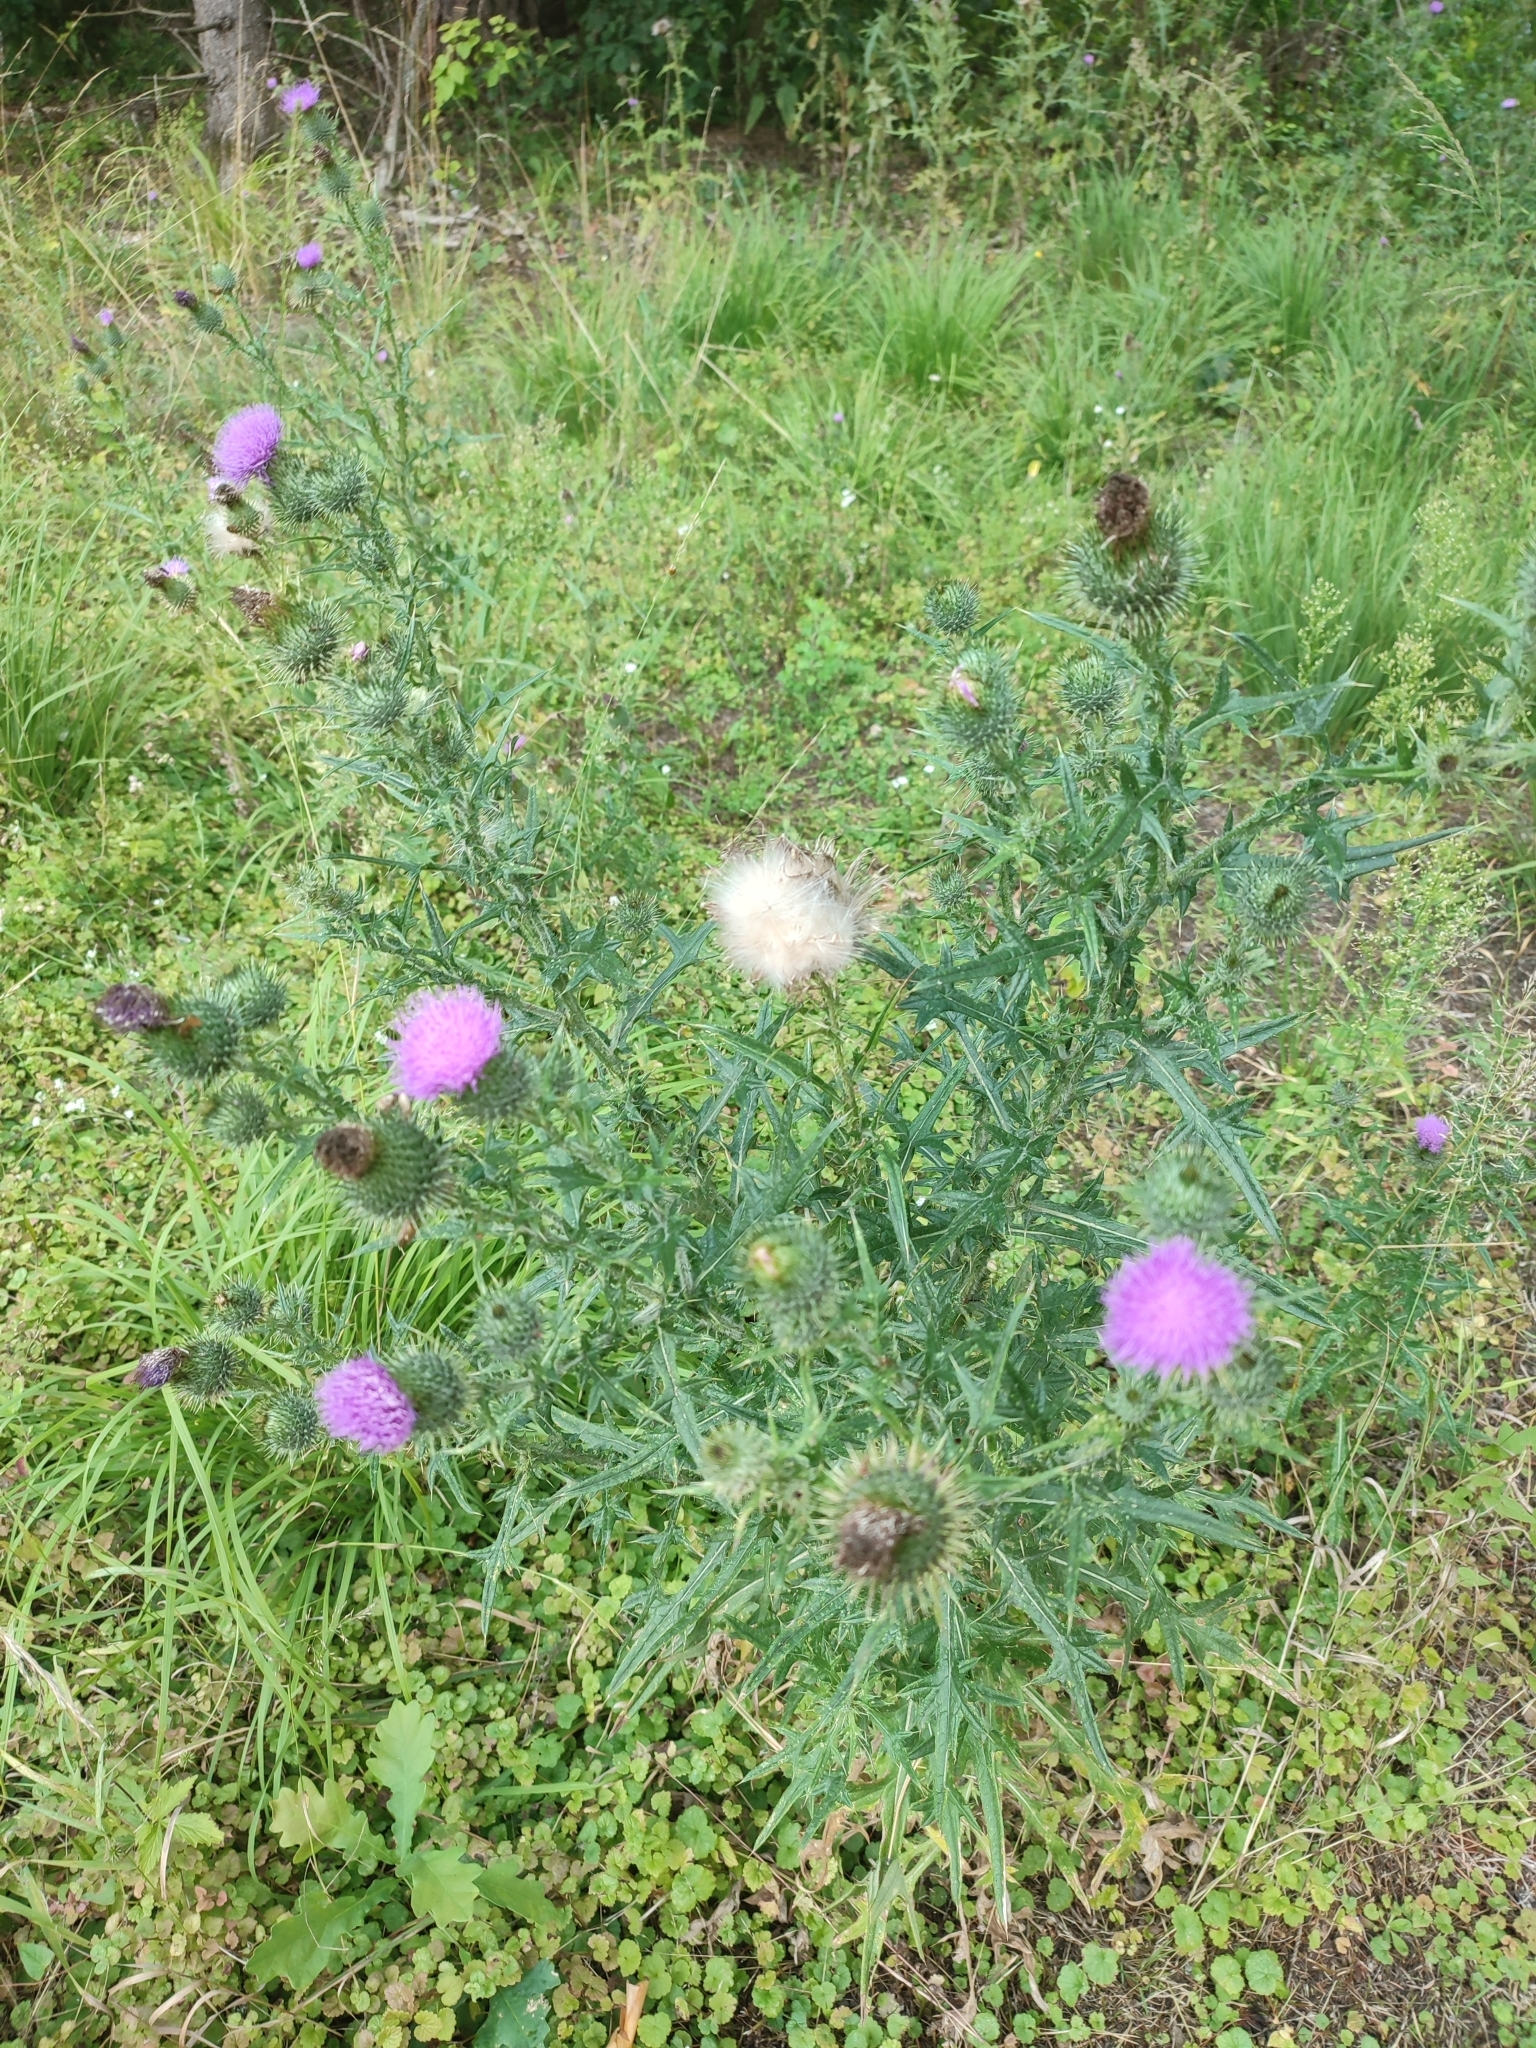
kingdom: Plantae
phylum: Tracheophyta
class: Magnoliopsida
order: Asterales
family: Asteraceae
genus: Cirsium
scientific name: Cirsium vulgare
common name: Bull thistle
